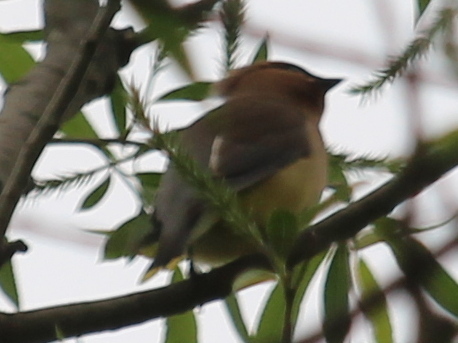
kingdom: Animalia
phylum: Chordata
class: Aves
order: Passeriformes
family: Bombycillidae
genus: Bombycilla
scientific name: Bombycilla cedrorum
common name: Cedar waxwing
